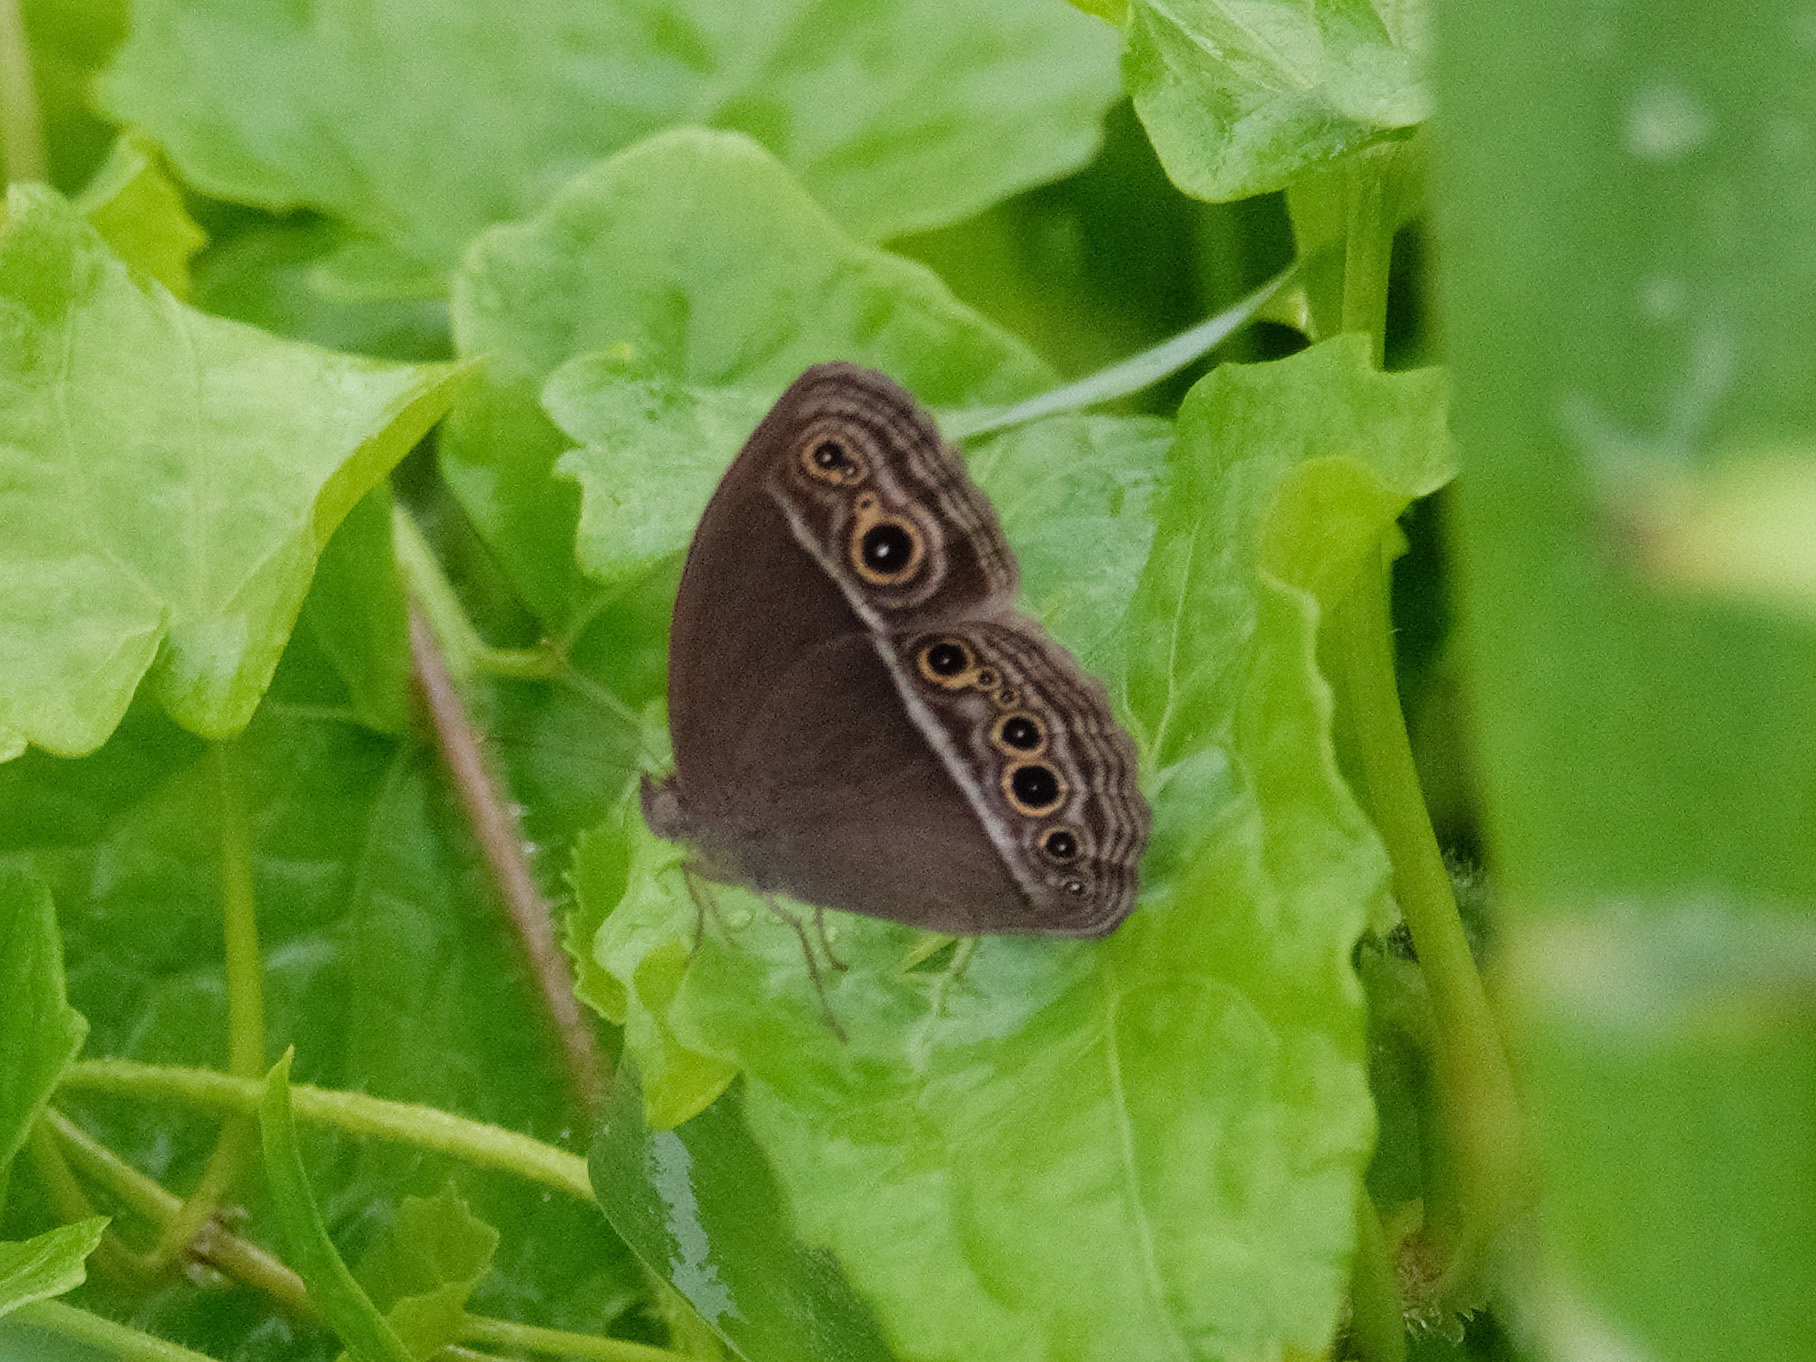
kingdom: Animalia
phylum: Arthropoda
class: Insecta
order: Lepidoptera
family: Nymphalidae
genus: Mycalesis
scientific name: Mycalesis mineus
